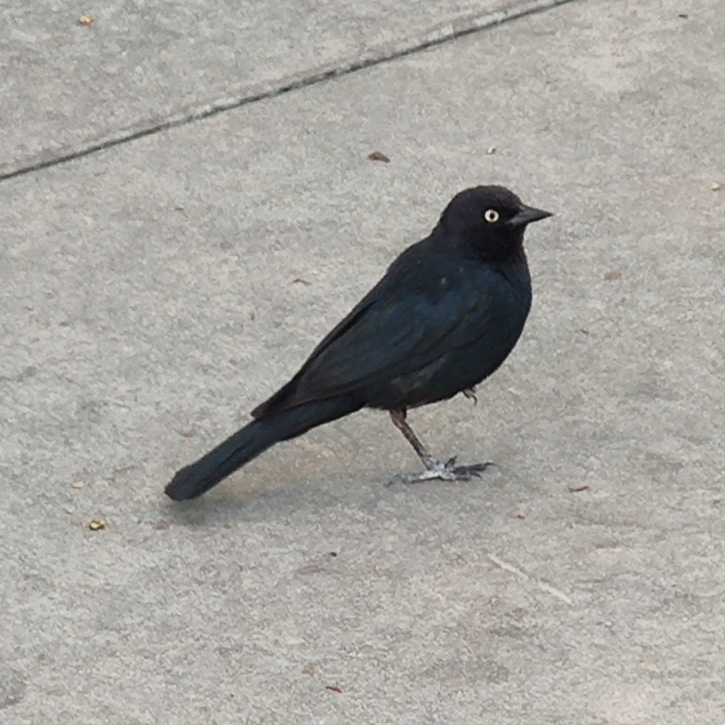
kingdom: Animalia
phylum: Chordata
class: Aves
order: Passeriformes
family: Icteridae
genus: Euphagus
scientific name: Euphagus cyanocephalus
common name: Brewer's blackbird
